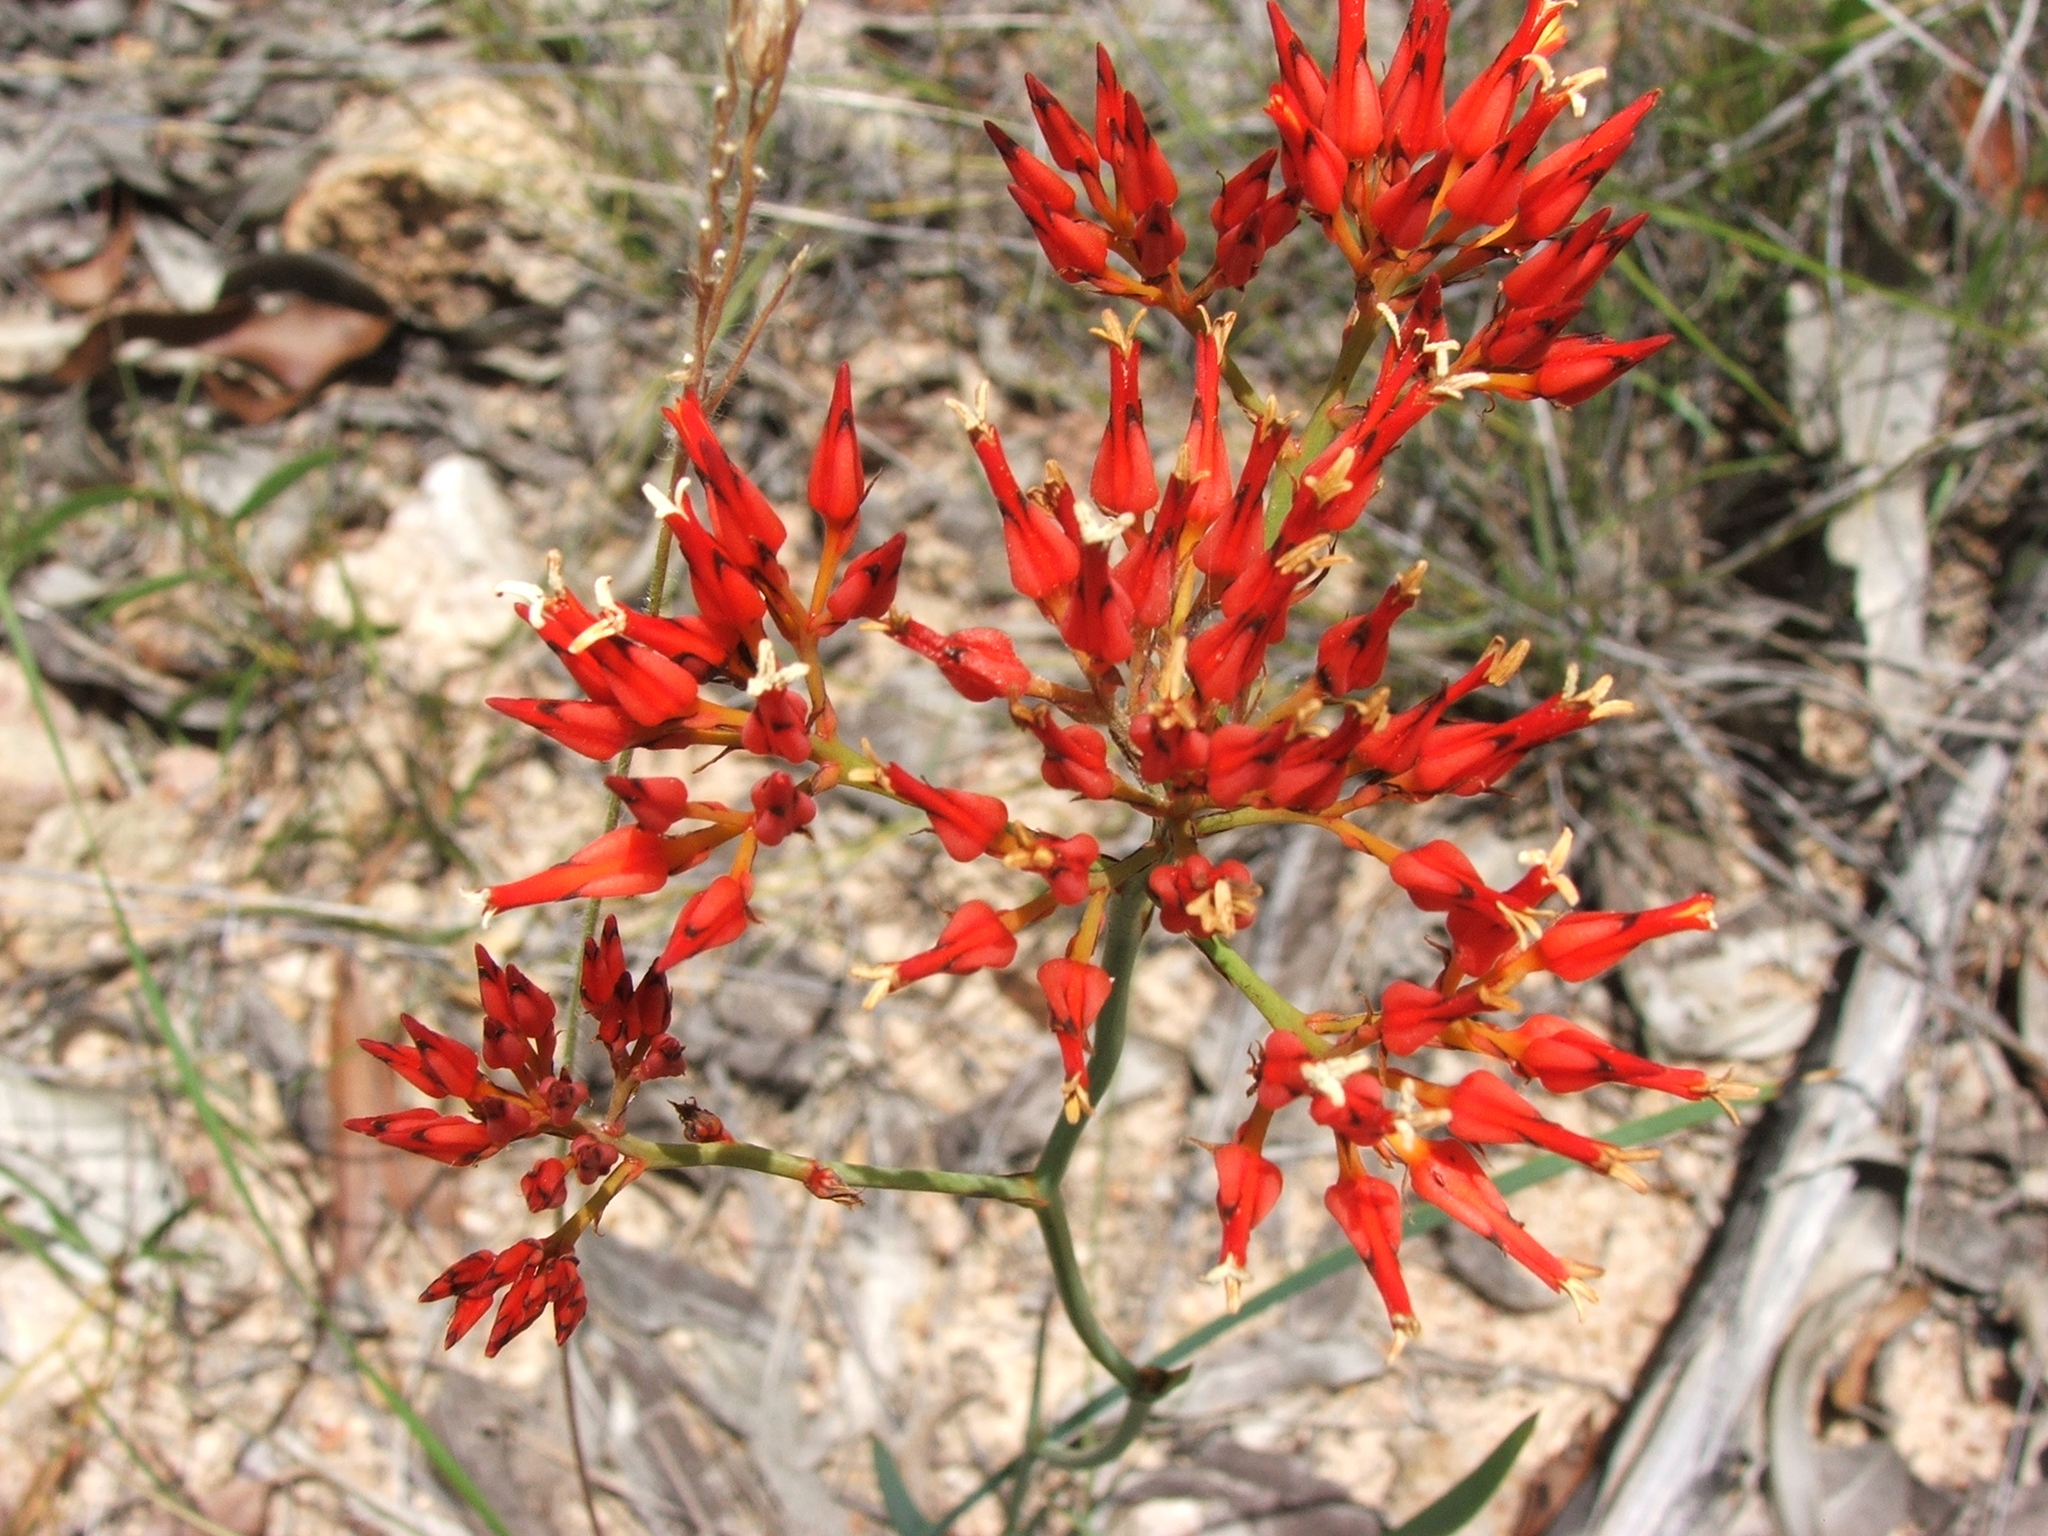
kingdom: Plantae
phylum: Tracheophyta
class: Liliopsida
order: Commelinales
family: Haemodoraceae
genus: Haemodorum
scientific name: Haemodorum coccineum
